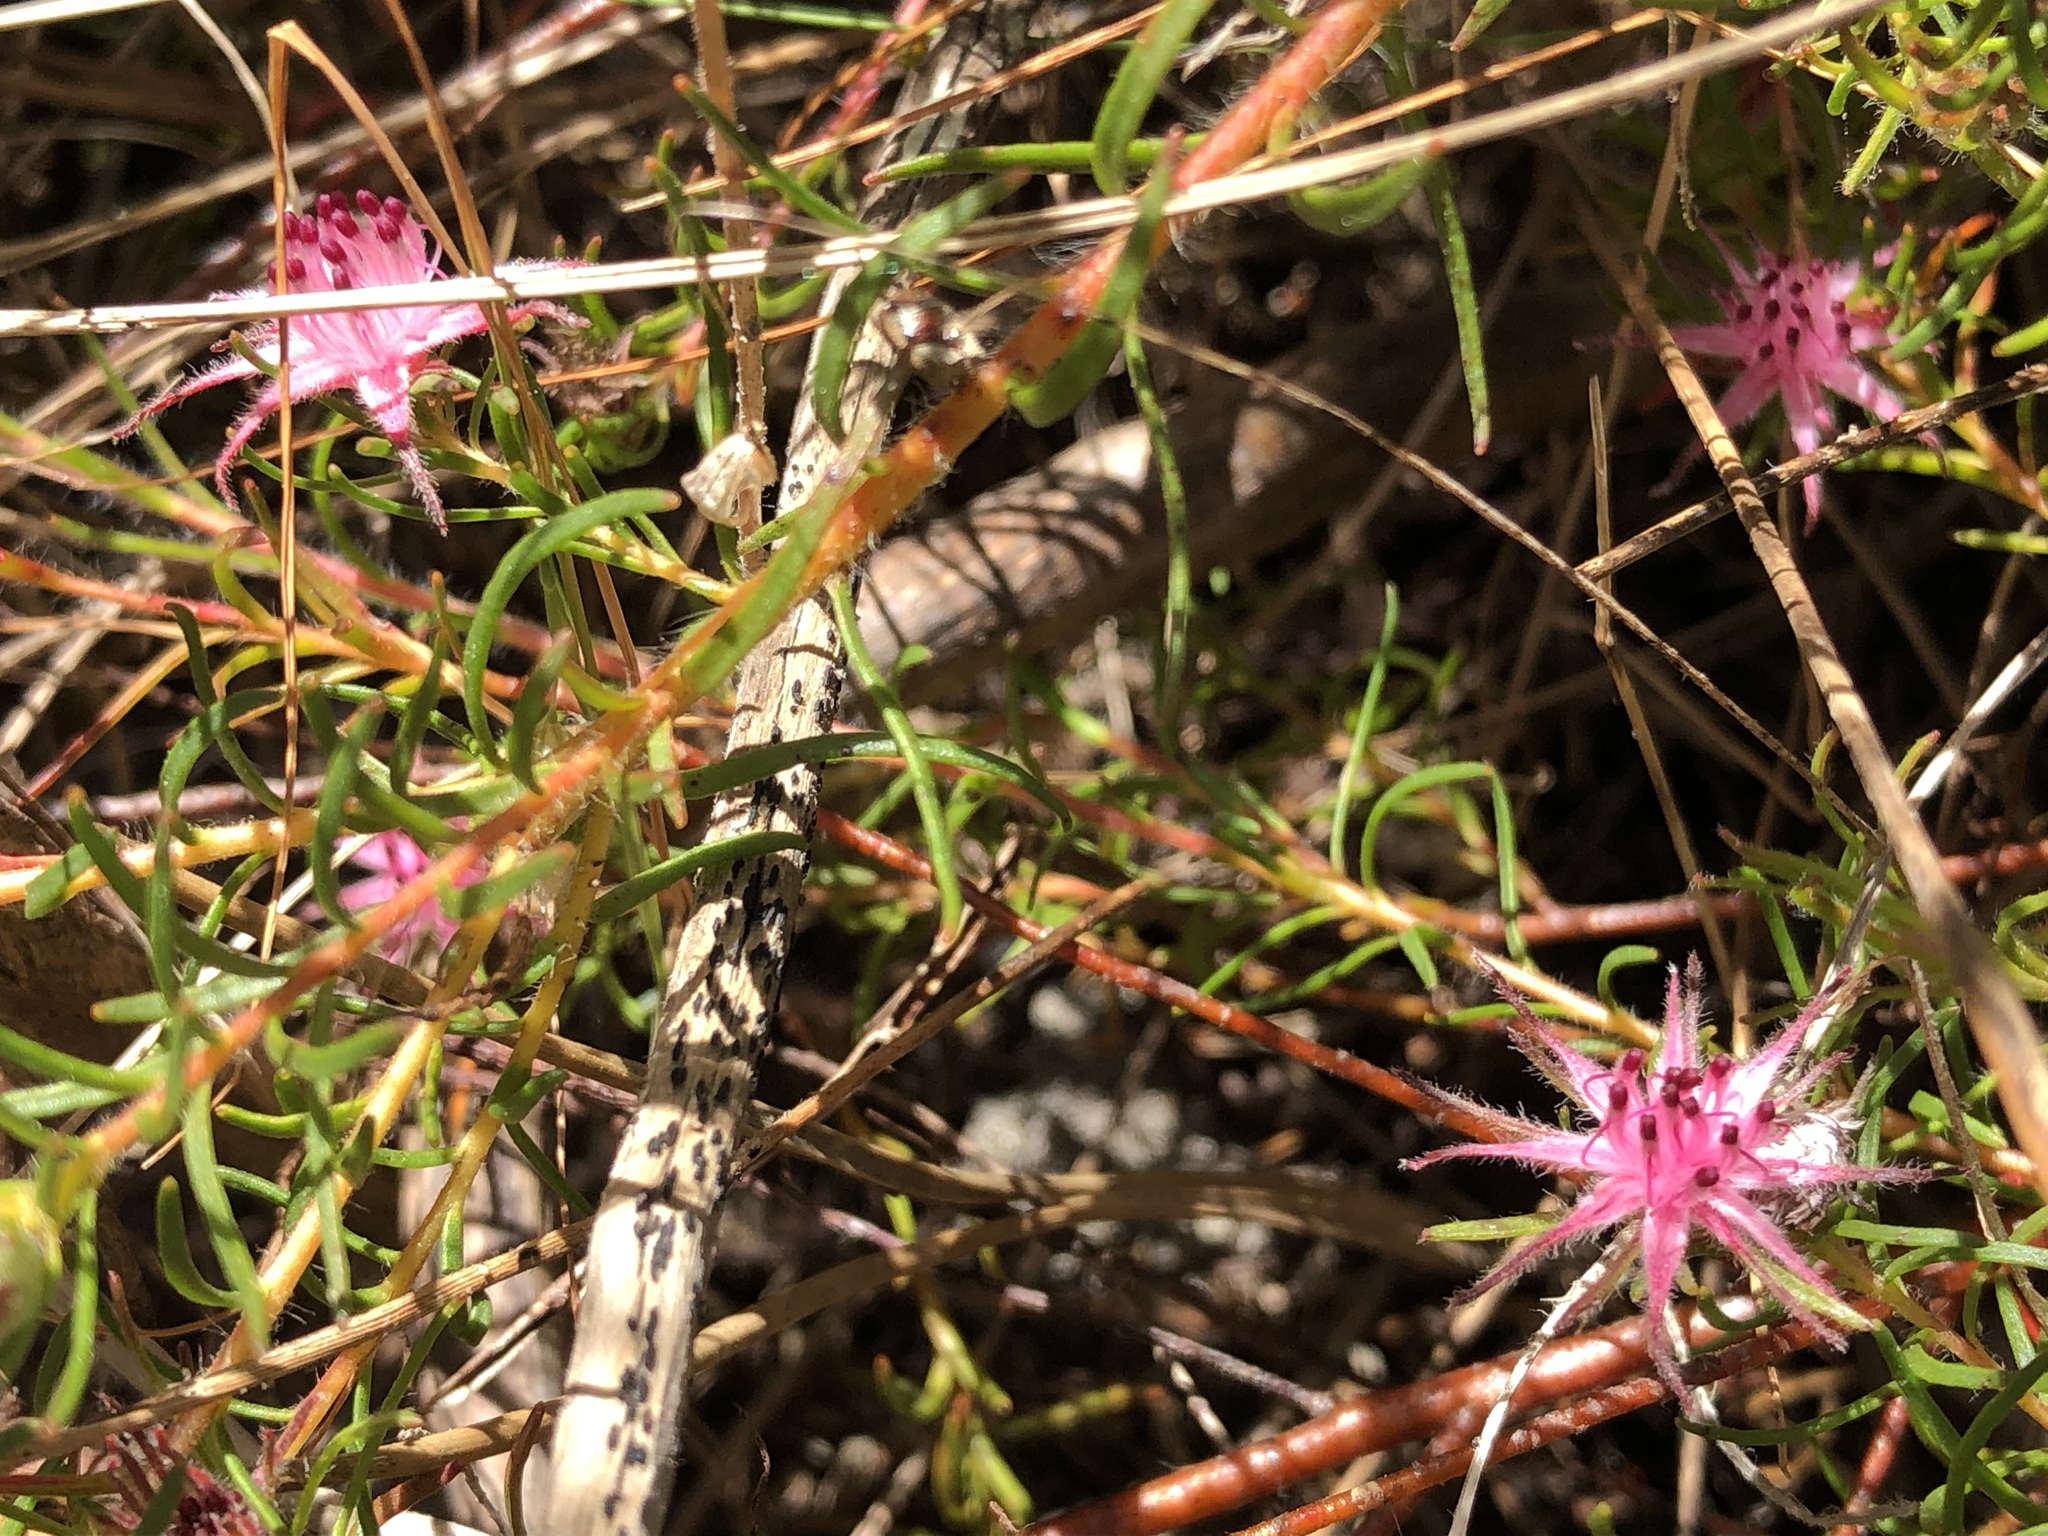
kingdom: Plantae
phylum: Tracheophyta
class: Magnoliopsida
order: Proteales
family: Proteaceae
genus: Diastella
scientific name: Diastella proteoides
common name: Flats silkypuff
